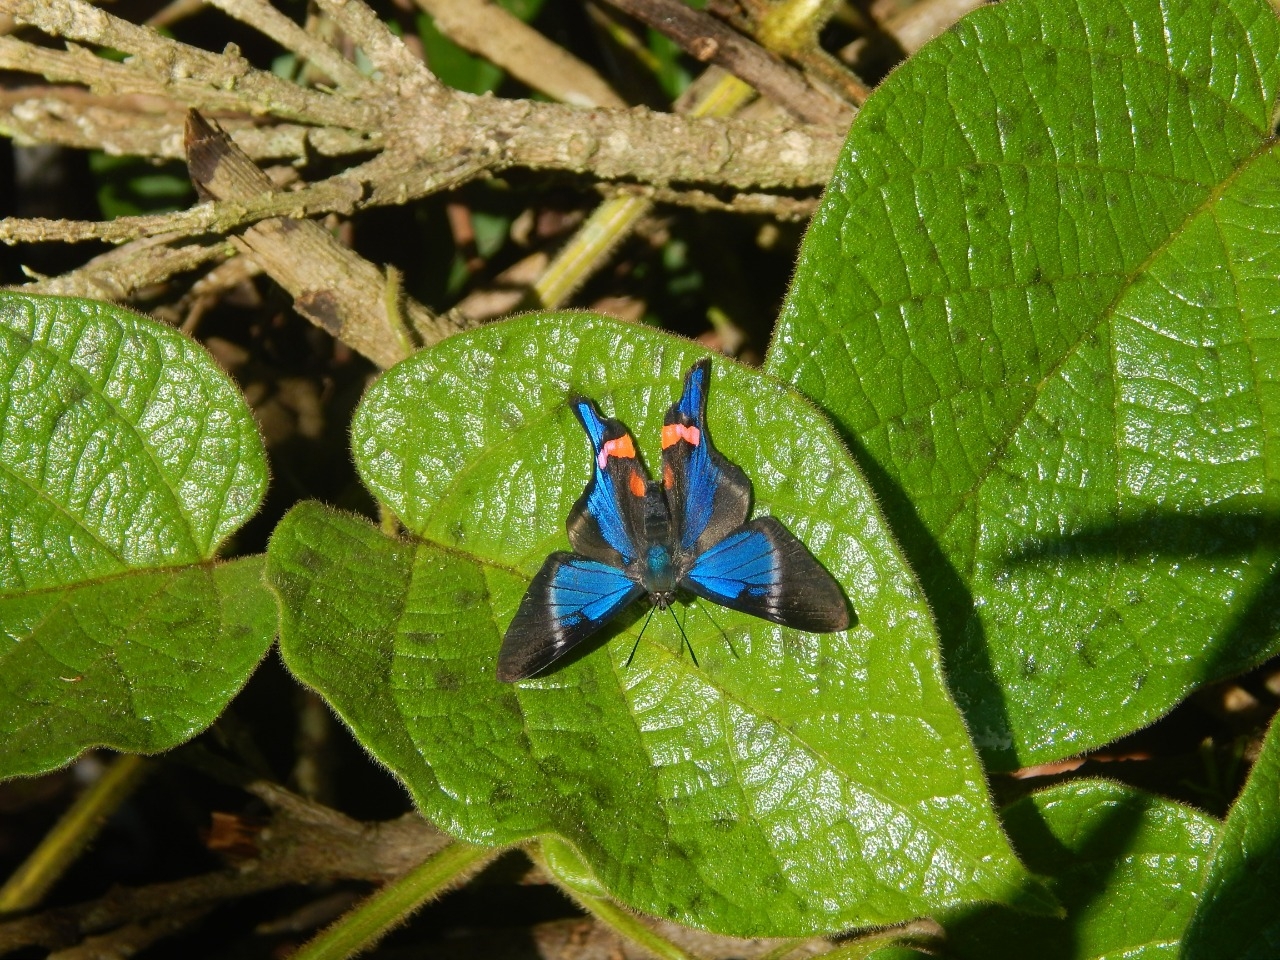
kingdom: Animalia
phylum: Arthropoda
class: Insecta
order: Lepidoptera
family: Riodinidae
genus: Rhetus
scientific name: Rhetus periander
